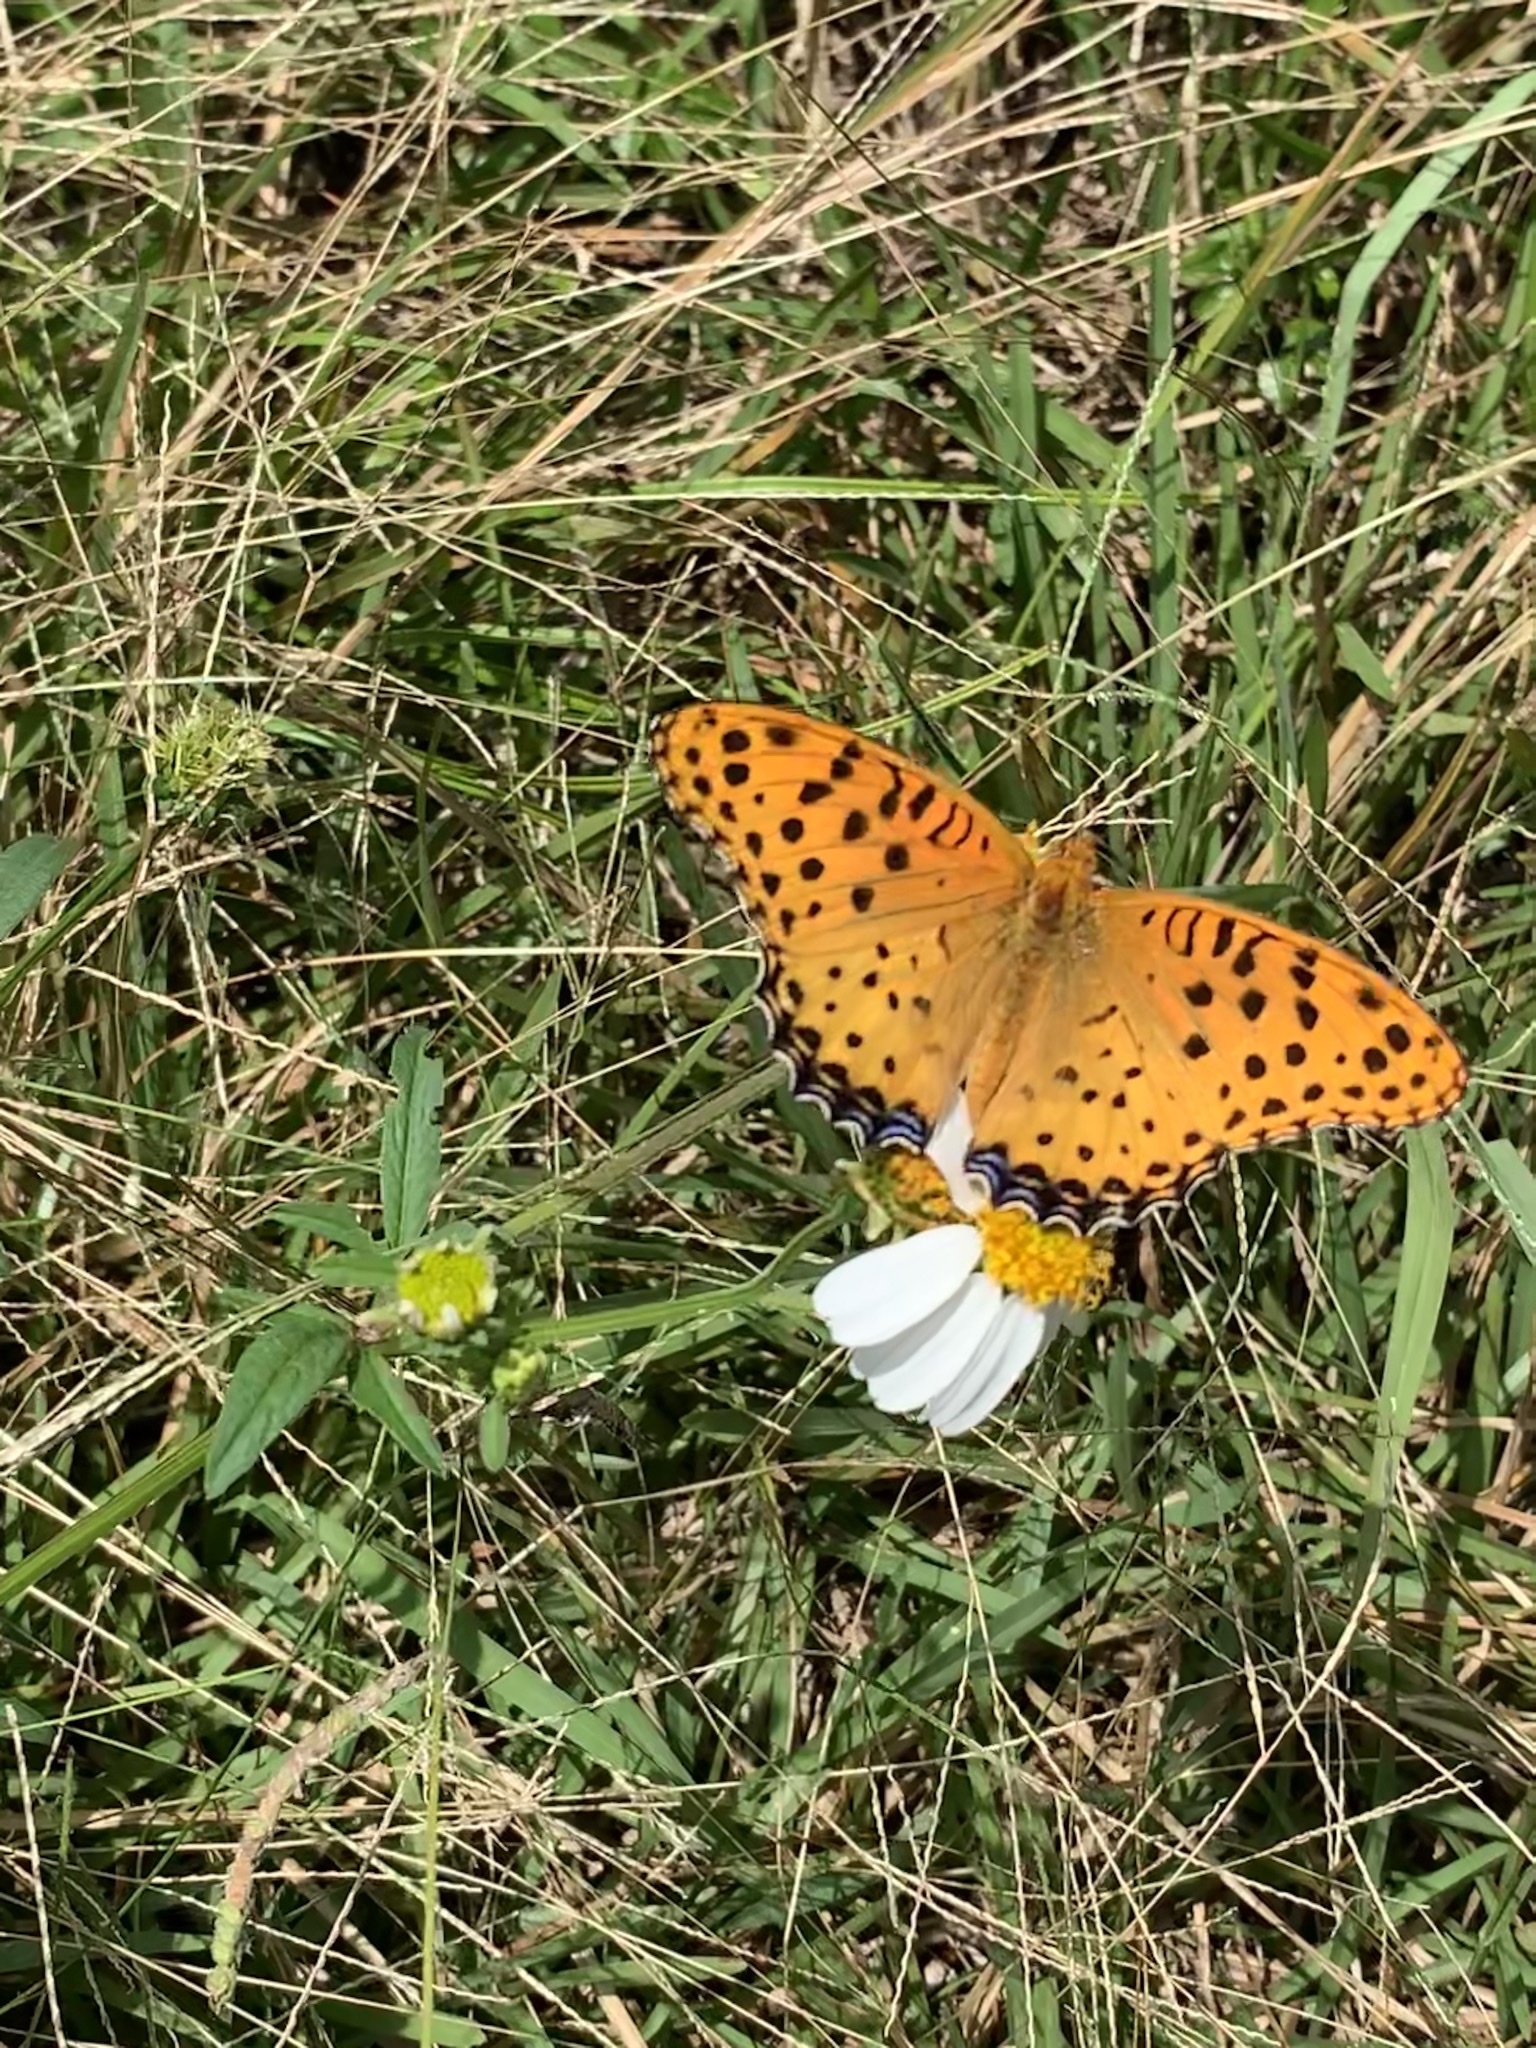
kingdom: Animalia
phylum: Arthropoda
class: Insecta
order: Lepidoptera
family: Nymphalidae
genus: Argynnis
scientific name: Argynnis hyperbius
